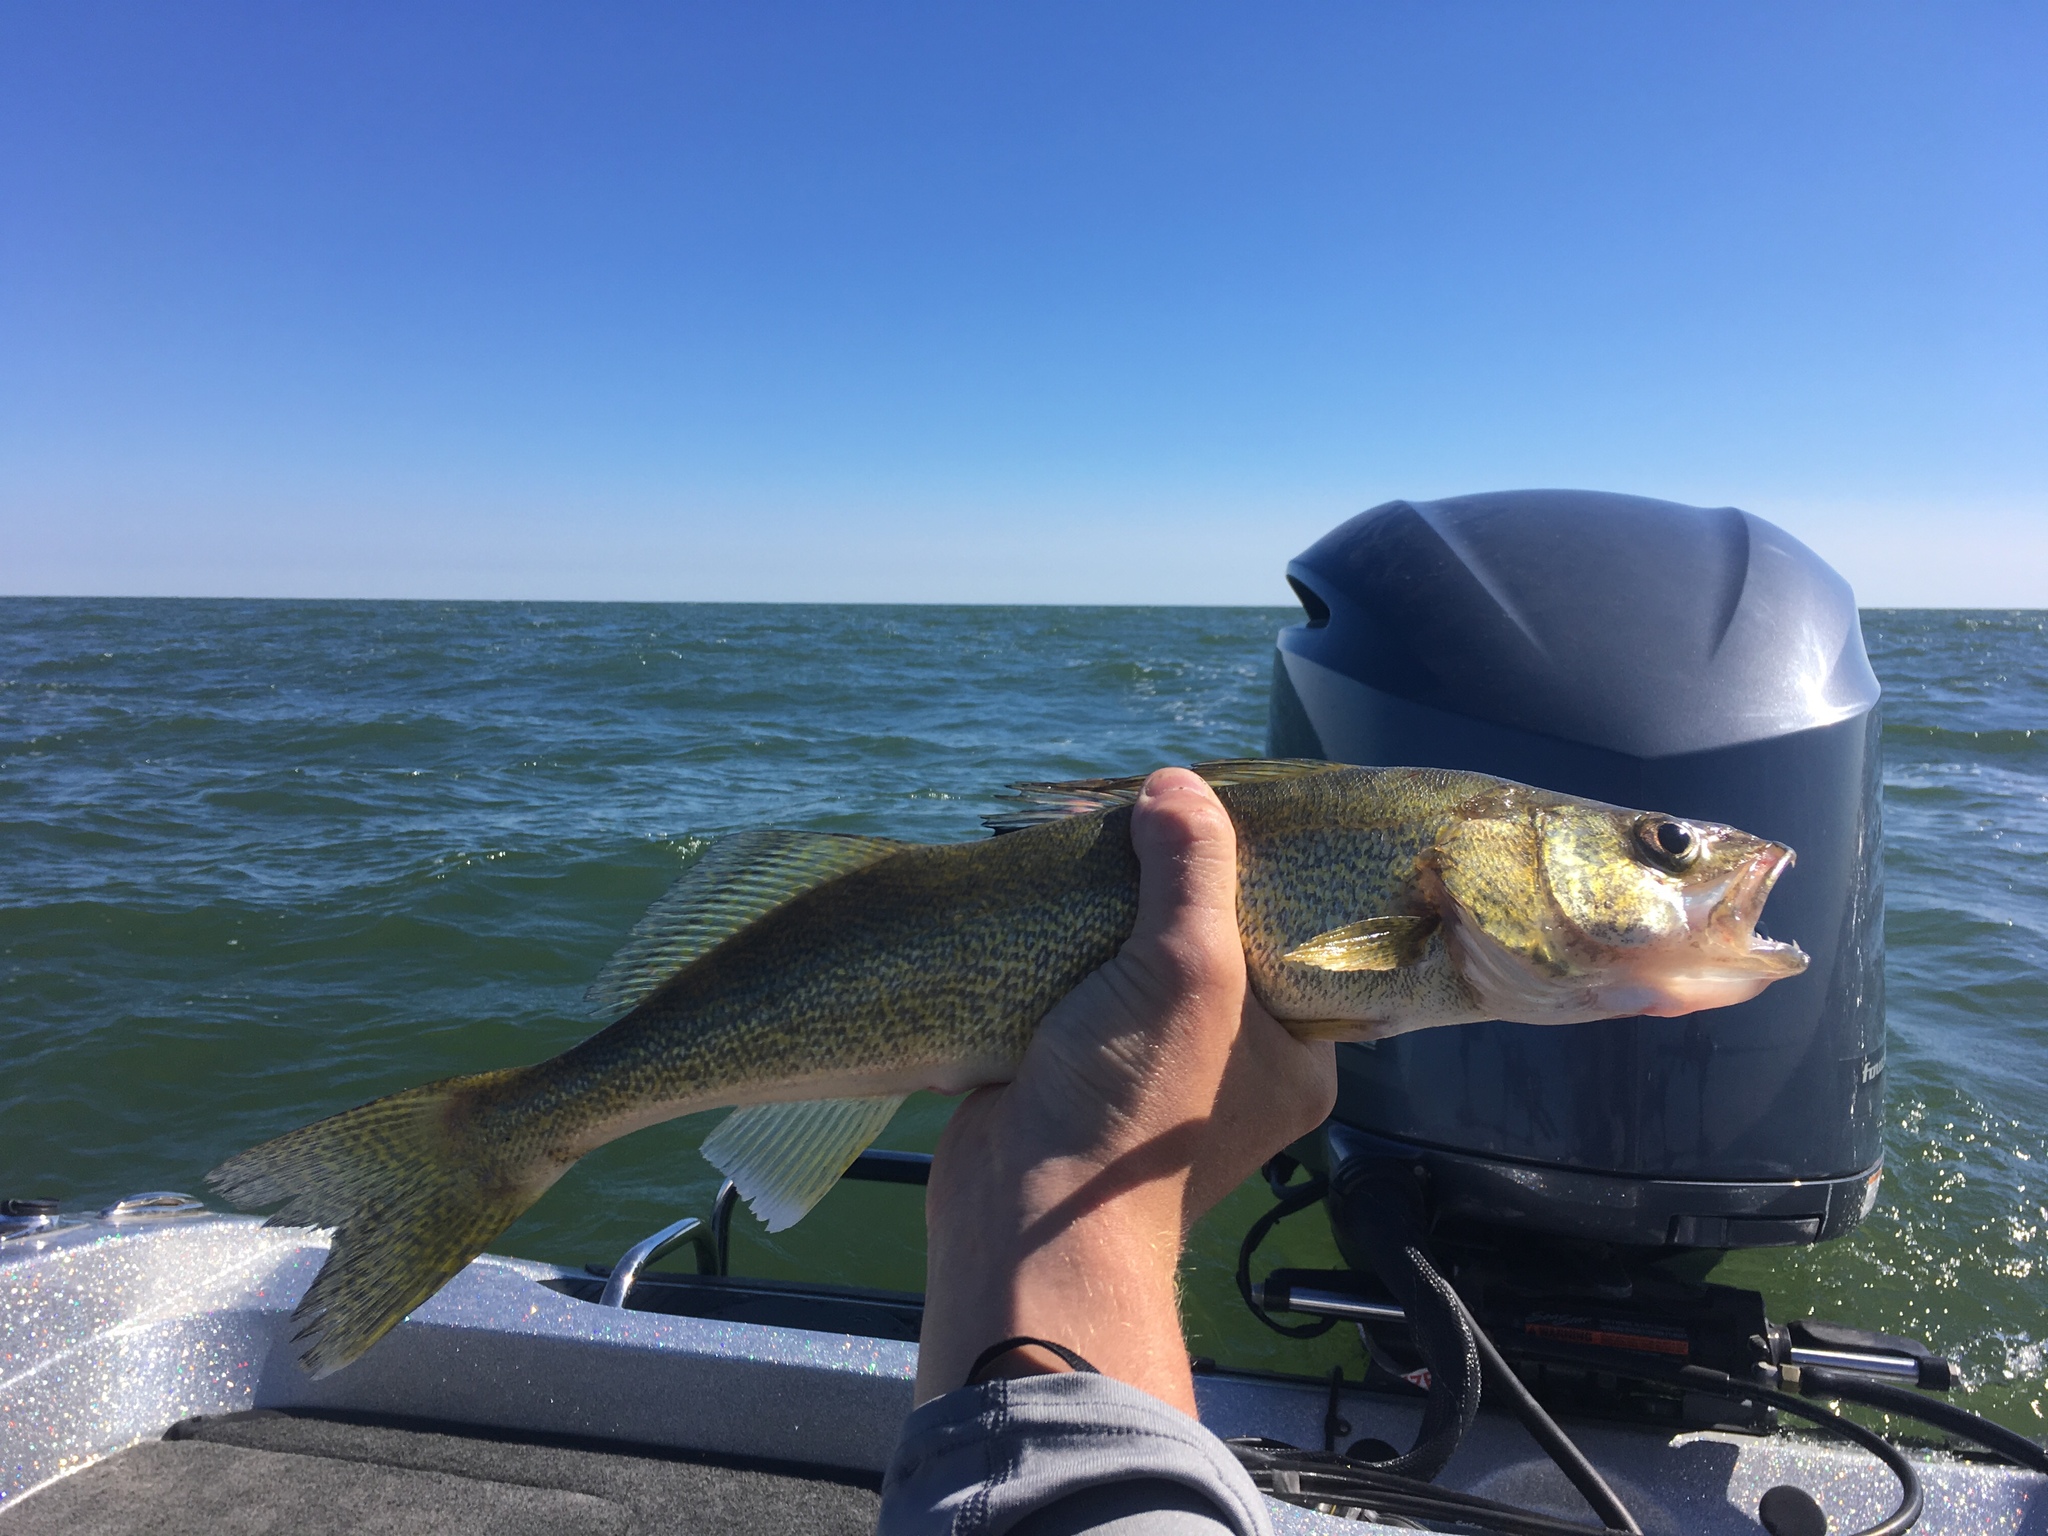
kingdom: Animalia
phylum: Chordata
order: Perciformes
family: Percidae
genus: Sander
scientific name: Sander vitreus
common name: Walleye
